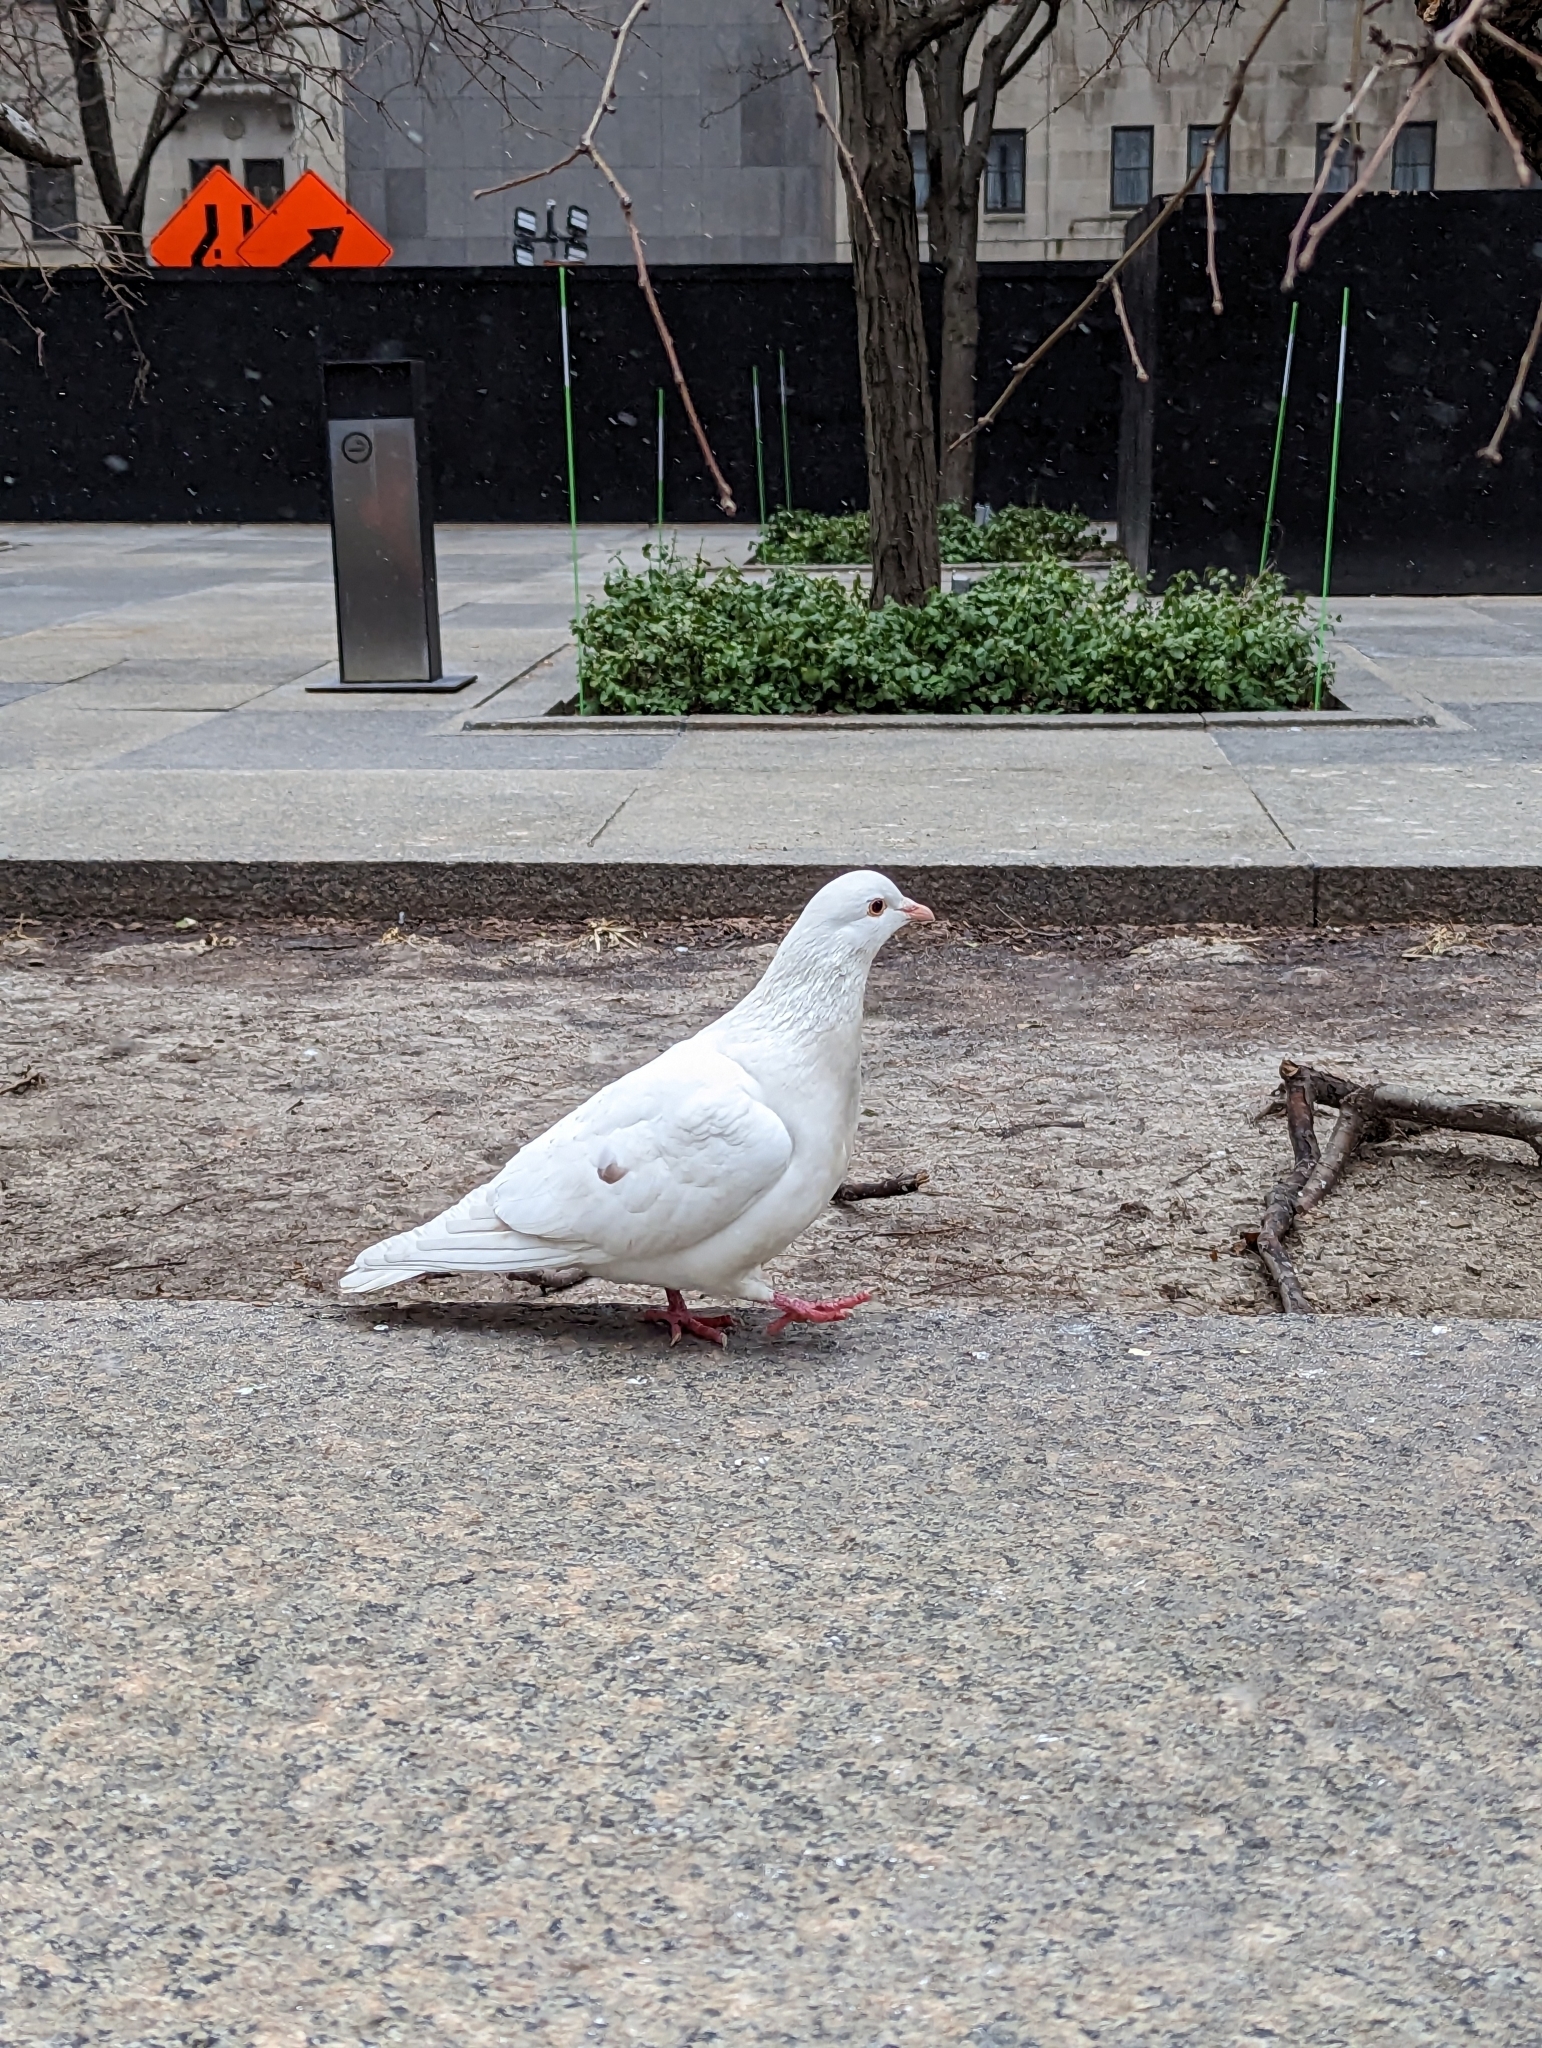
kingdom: Animalia
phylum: Chordata
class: Aves
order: Columbiformes
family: Columbidae
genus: Columba
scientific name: Columba livia
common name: Rock pigeon
